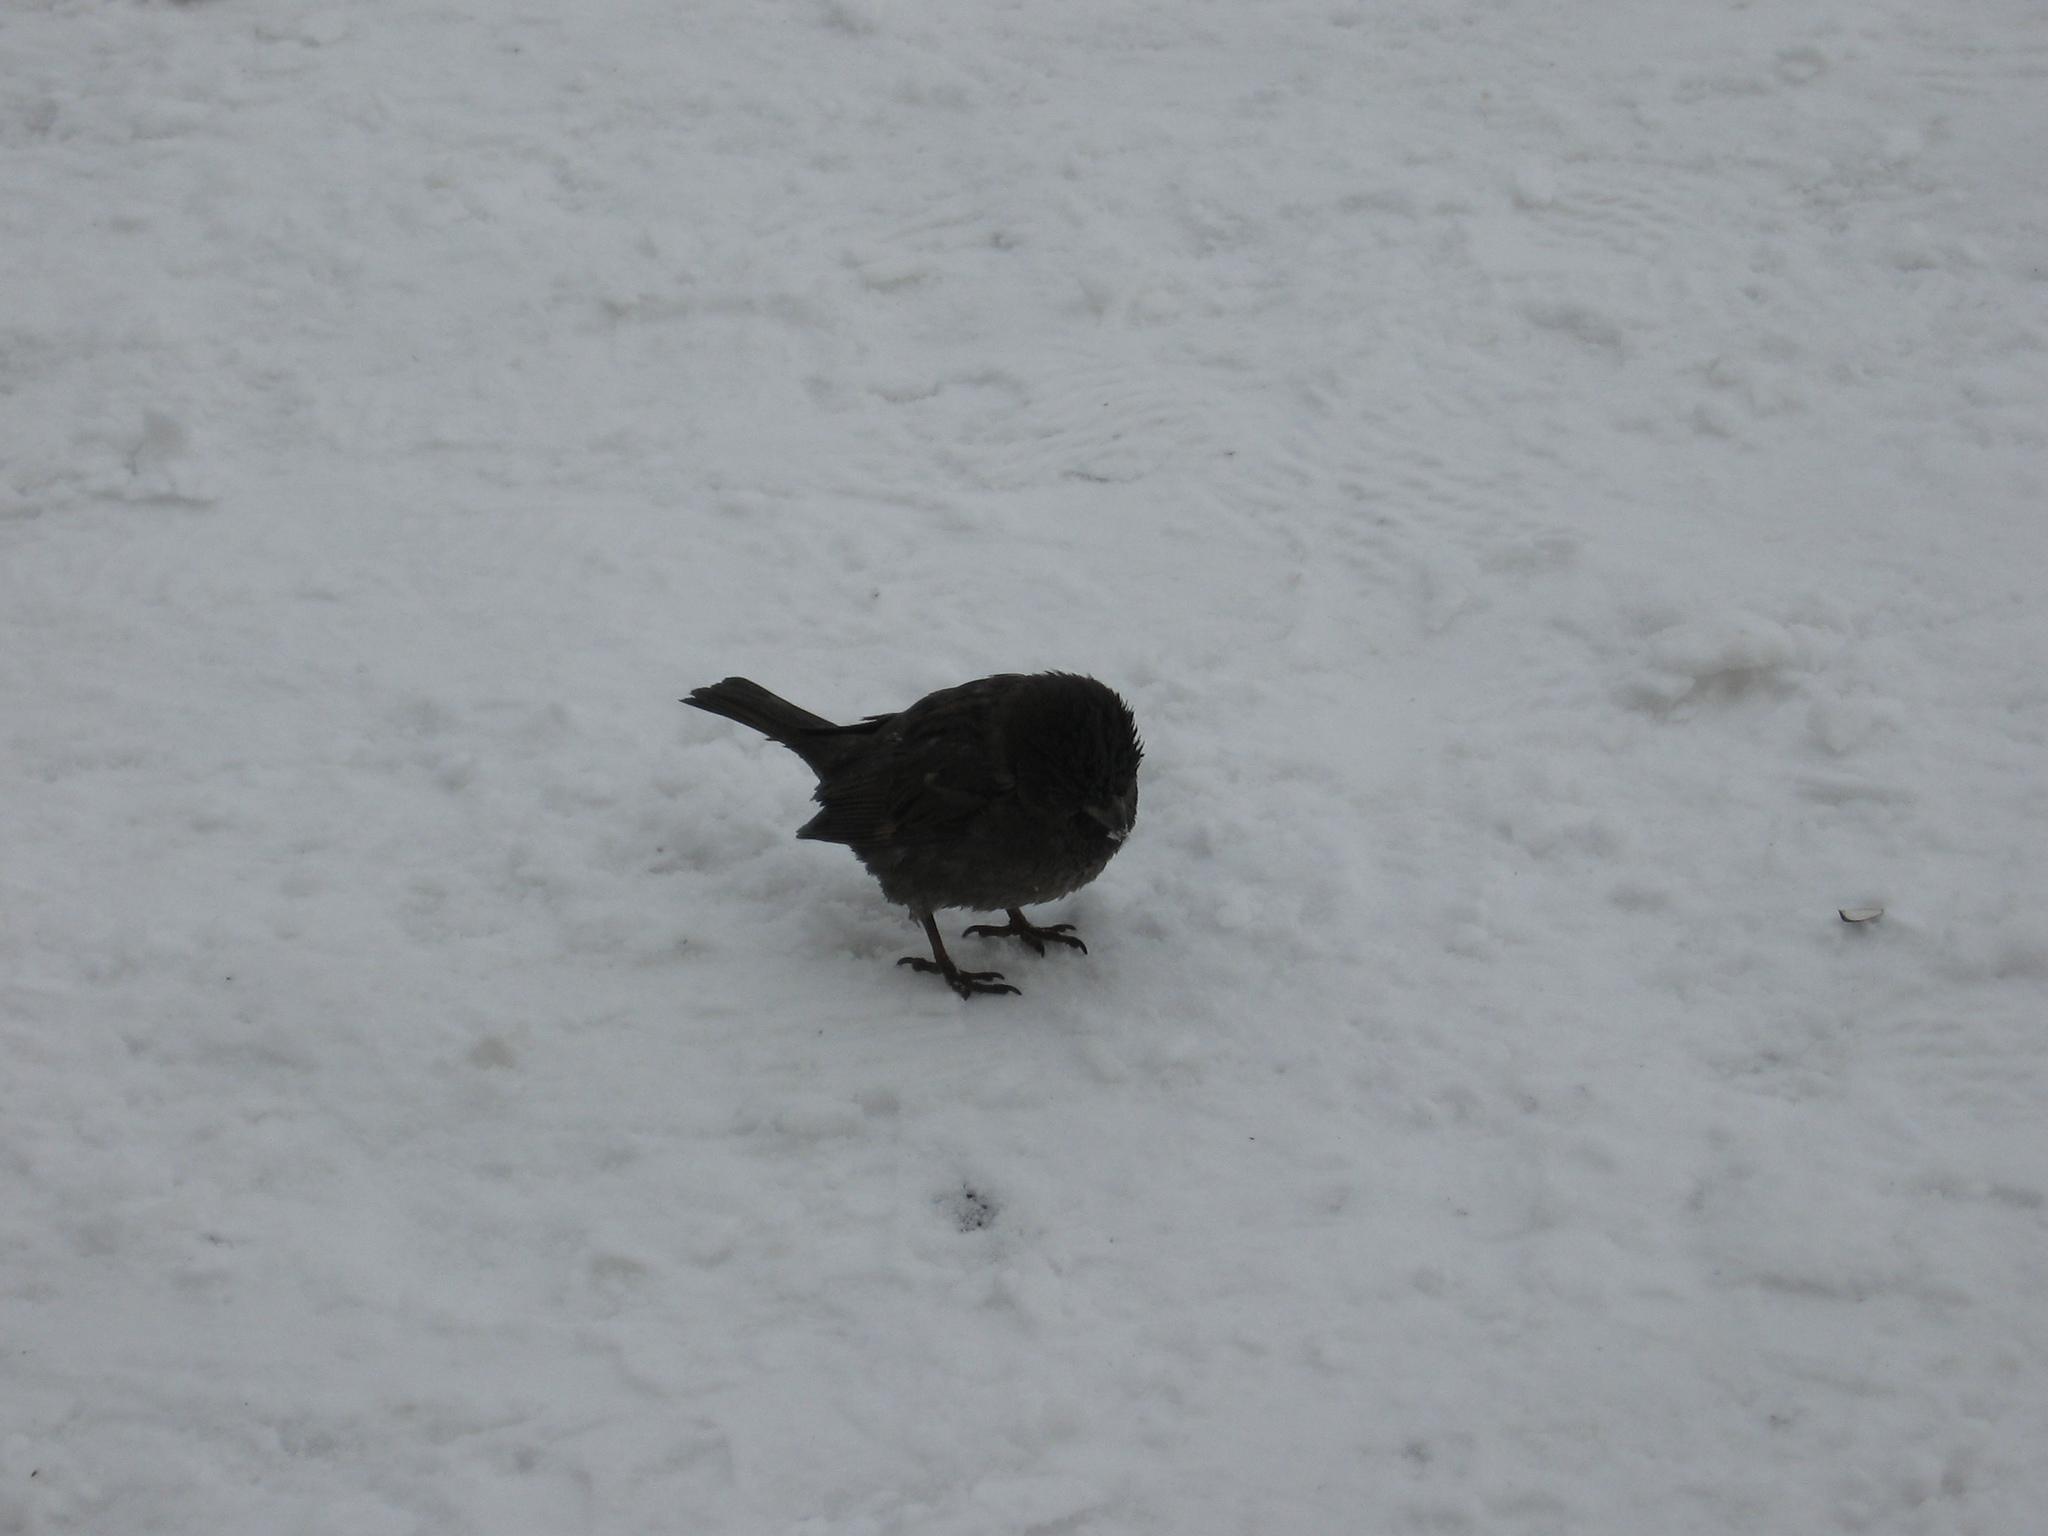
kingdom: Animalia
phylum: Chordata
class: Aves
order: Passeriformes
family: Passeridae
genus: Passer
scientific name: Passer domesticus
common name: House sparrow
